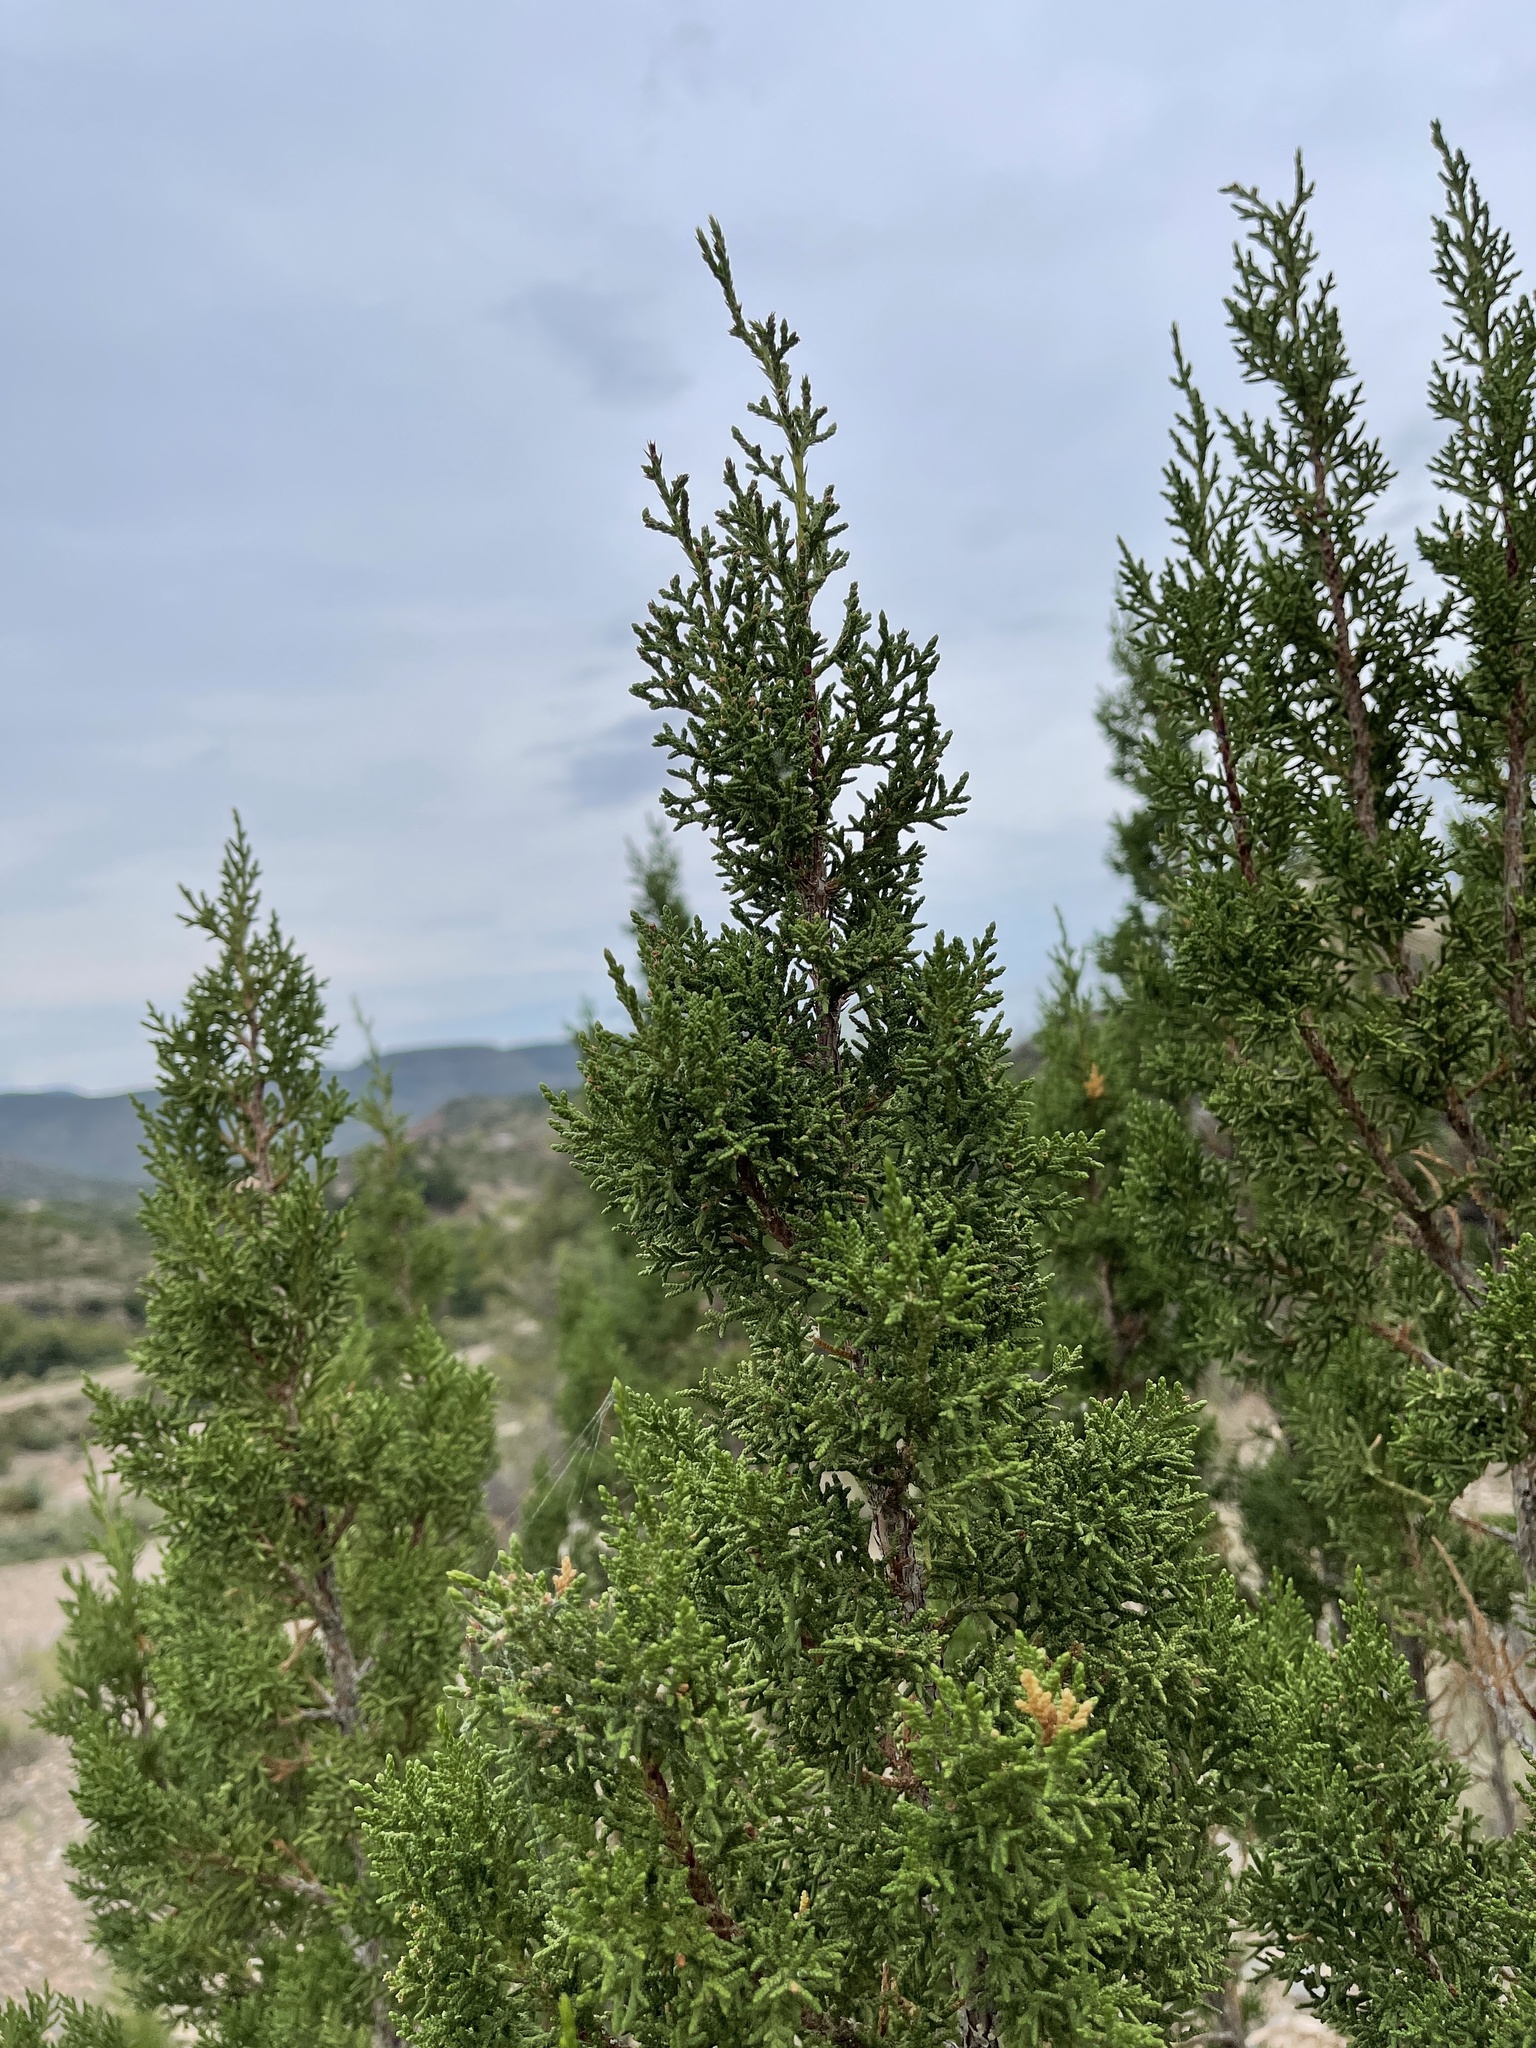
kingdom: Plantae
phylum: Tracheophyta
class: Pinopsida
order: Pinales
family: Cupressaceae
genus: Juniperus
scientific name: Juniperus monosperma
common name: One-seed juniper
